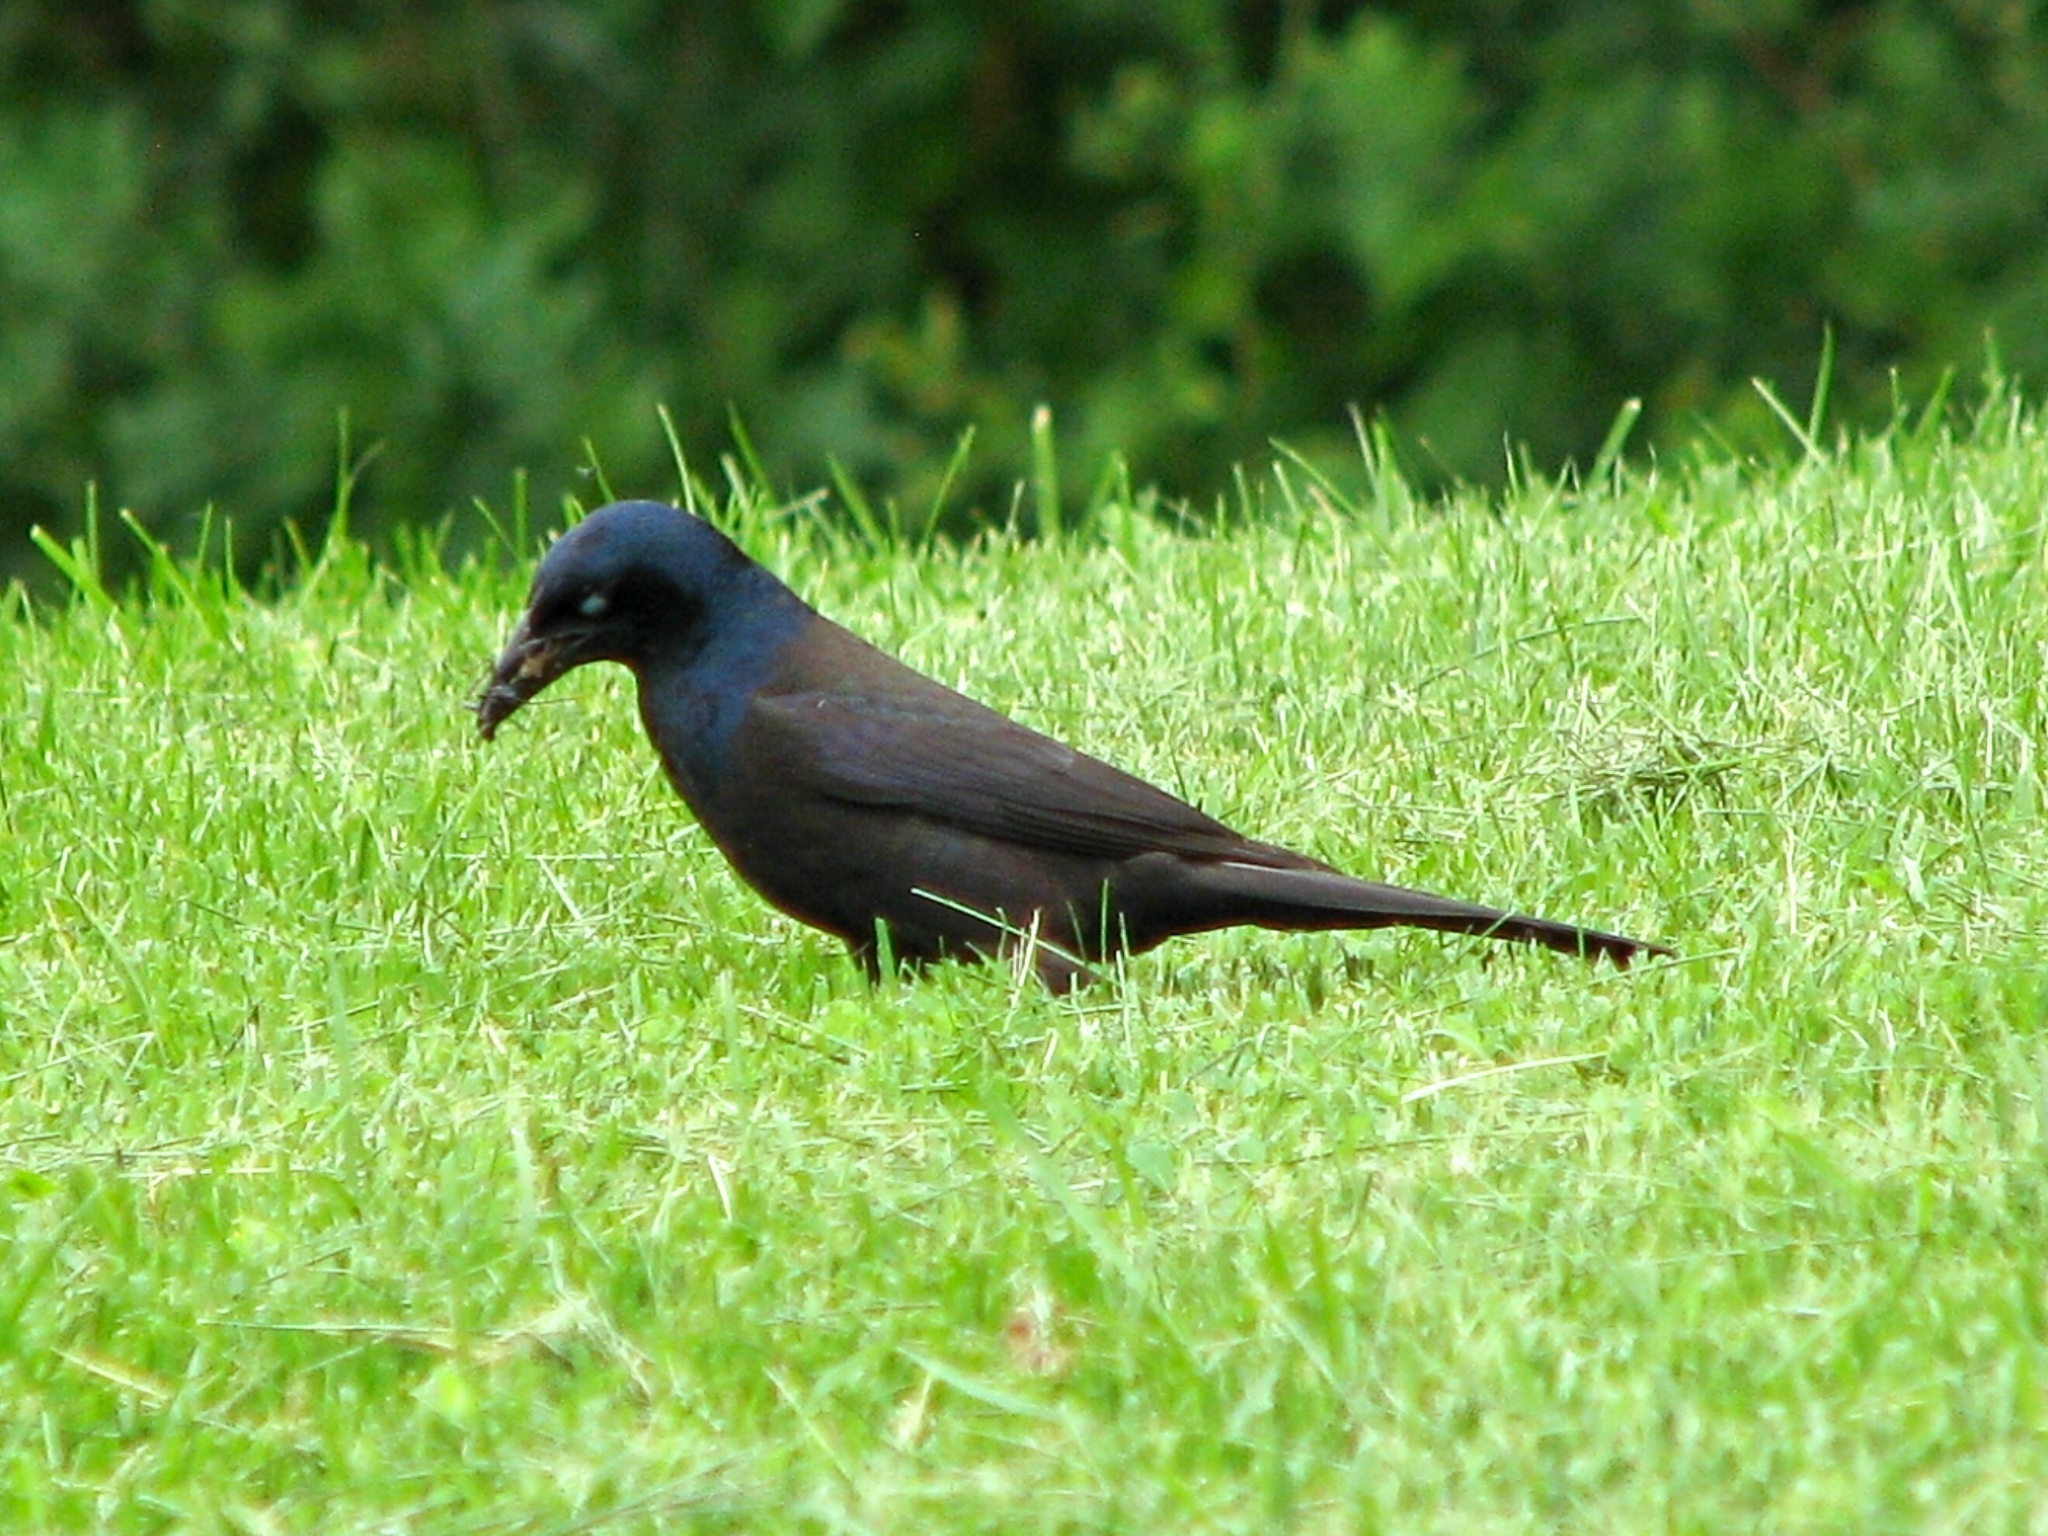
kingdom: Animalia
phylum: Chordata
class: Aves
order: Passeriformes
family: Icteridae
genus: Quiscalus
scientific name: Quiscalus quiscula
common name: Common grackle
